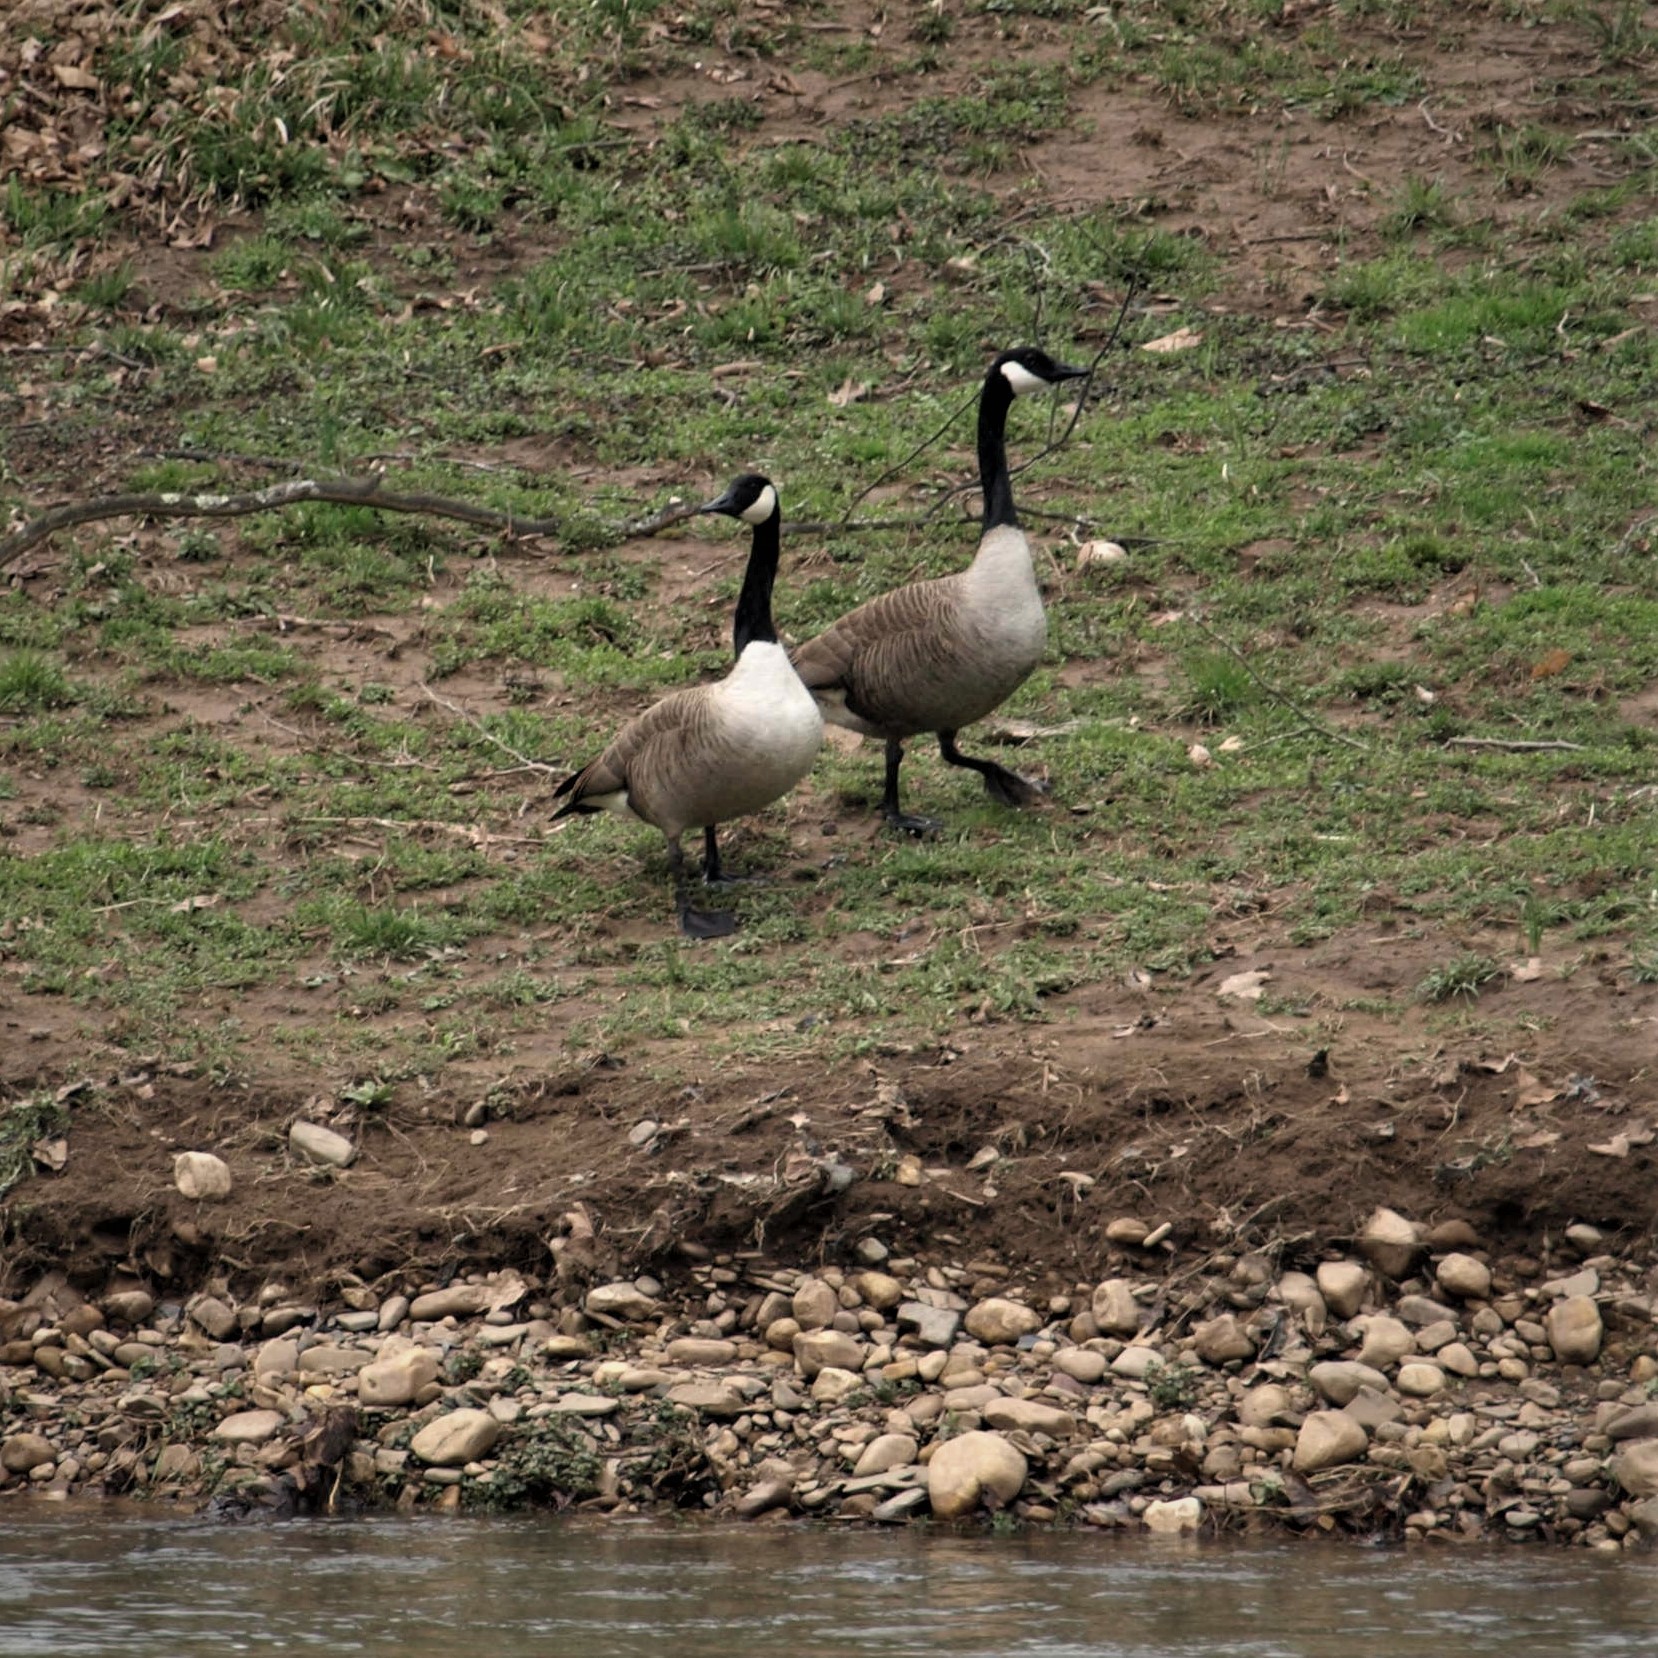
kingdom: Animalia
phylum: Chordata
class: Aves
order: Anseriformes
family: Anatidae
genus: Branta
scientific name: Branta canadensis
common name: Canada goose
